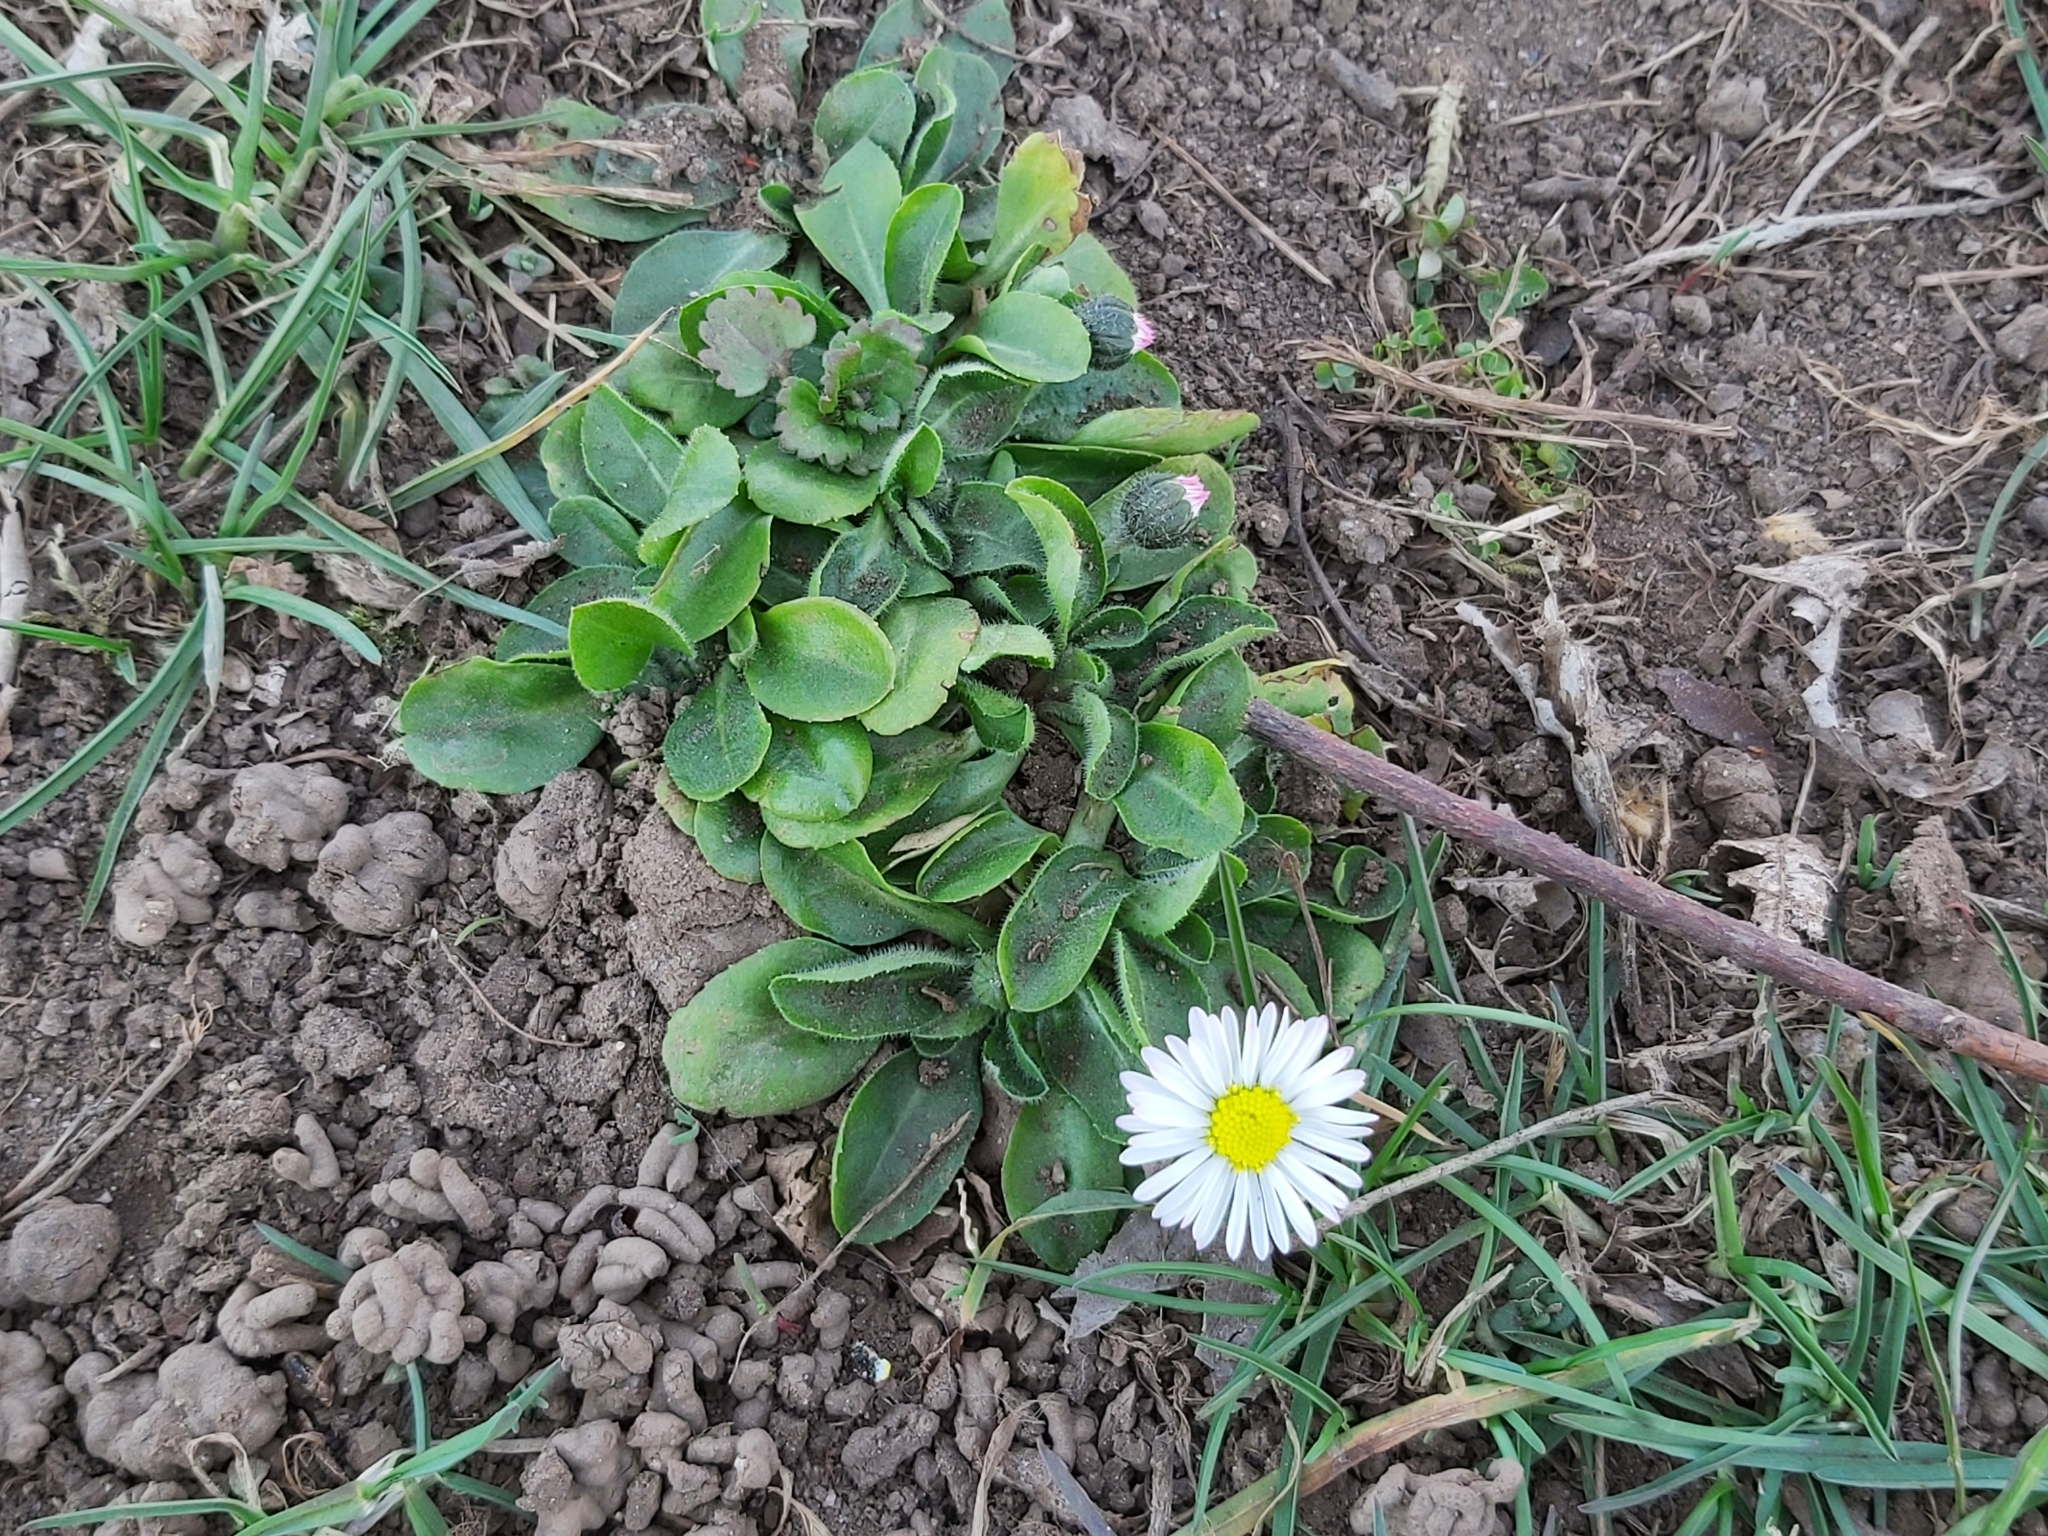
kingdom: Plantae
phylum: Tracheophyta
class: Magnoliopsida
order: Asterales
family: Asteraceae
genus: Bellis
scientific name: Bellis perennis
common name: Lawndaisy
